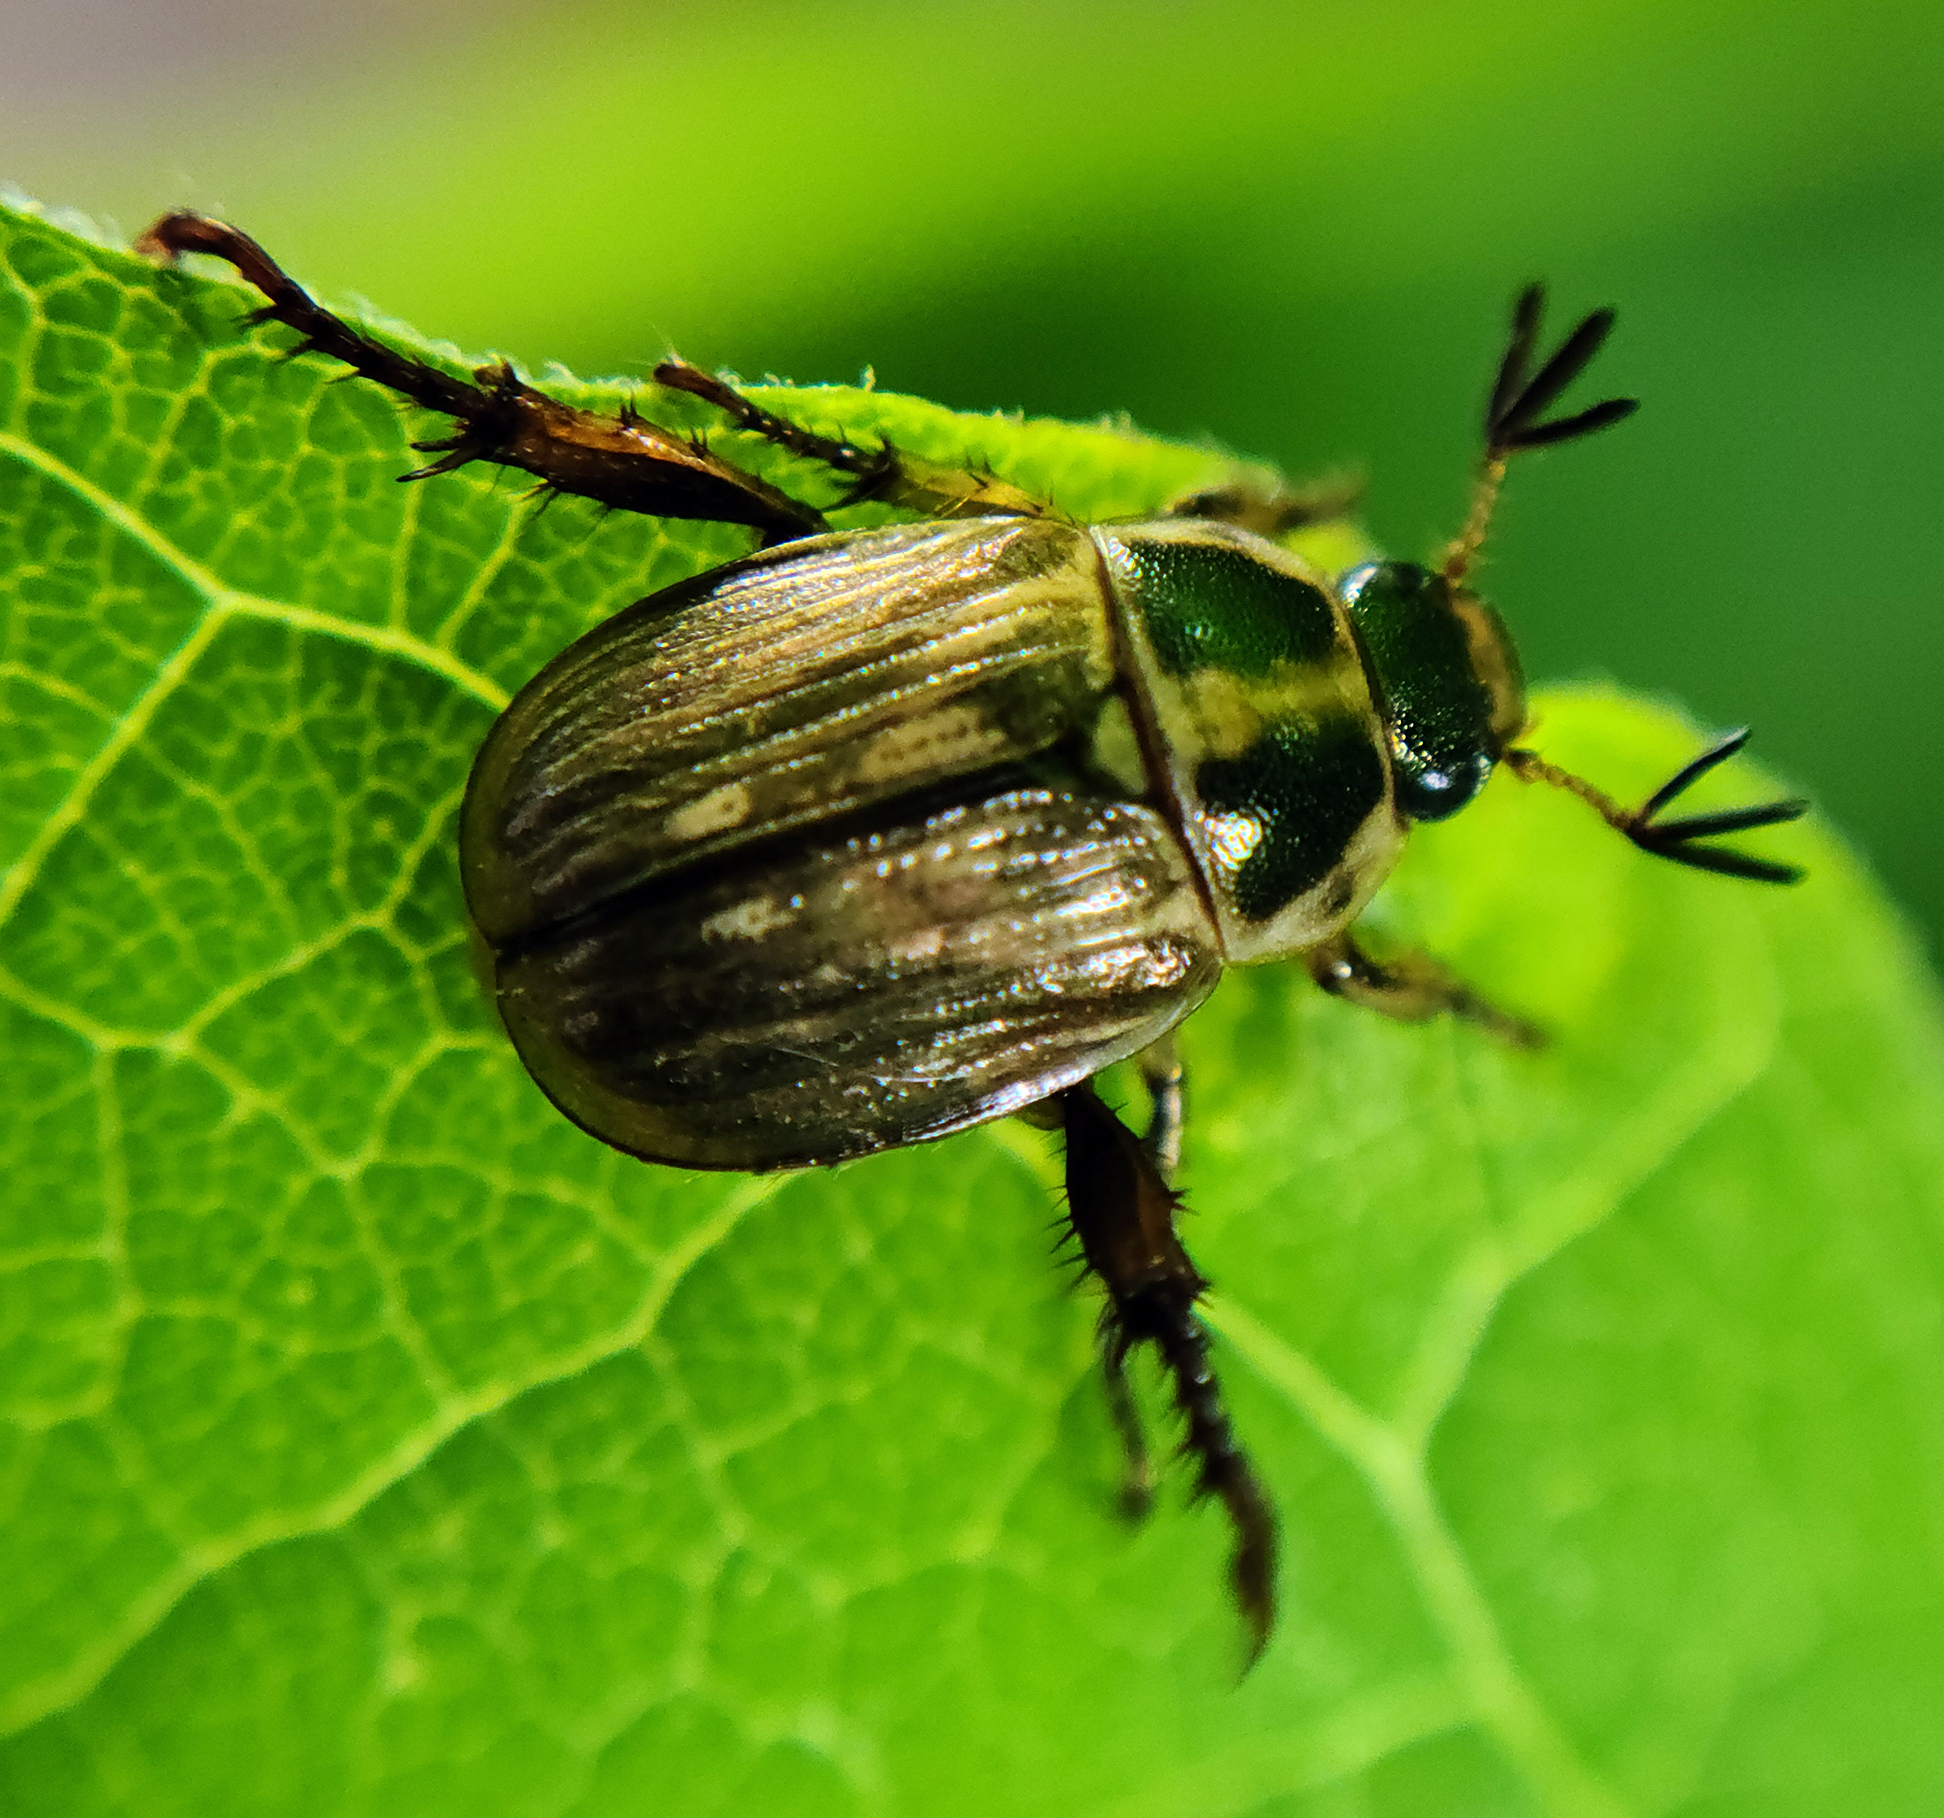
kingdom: Animalia
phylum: Arthropoda
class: Insecta
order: Coleoptera
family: Scarabaeidae
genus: Exomala
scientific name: Exomala orientalis
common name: Oriental beetle
